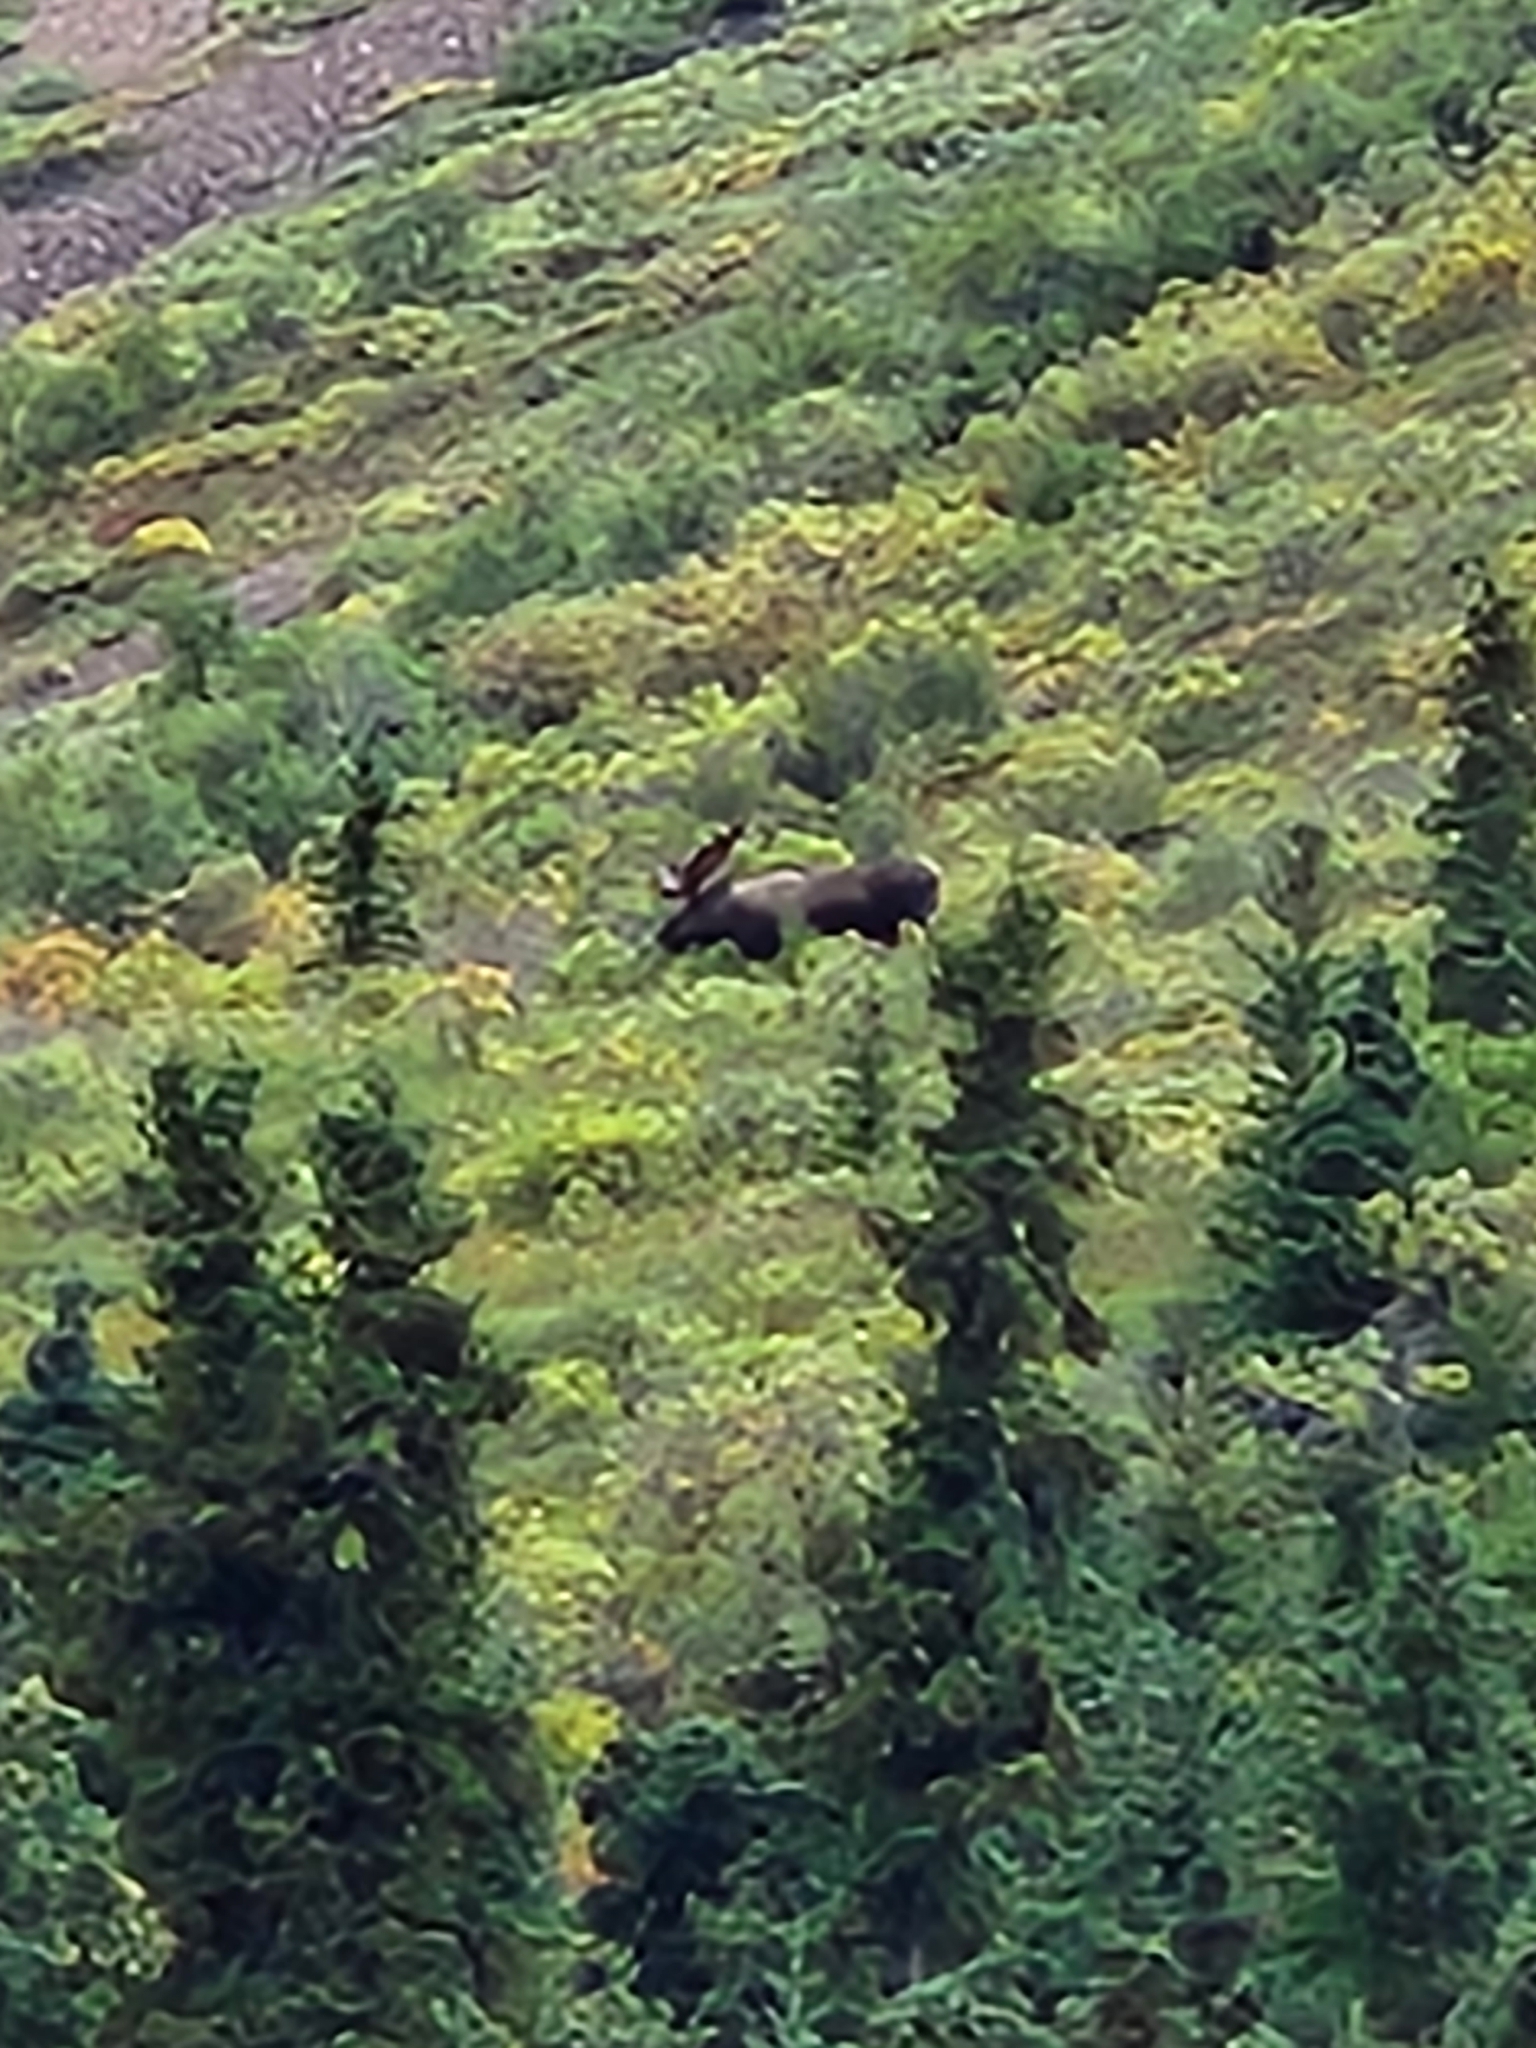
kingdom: Animalia
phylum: Chordata
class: Mammalia
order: Artiodactyla
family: Cervidae
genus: Alces
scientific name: Alces alces
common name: Moose
